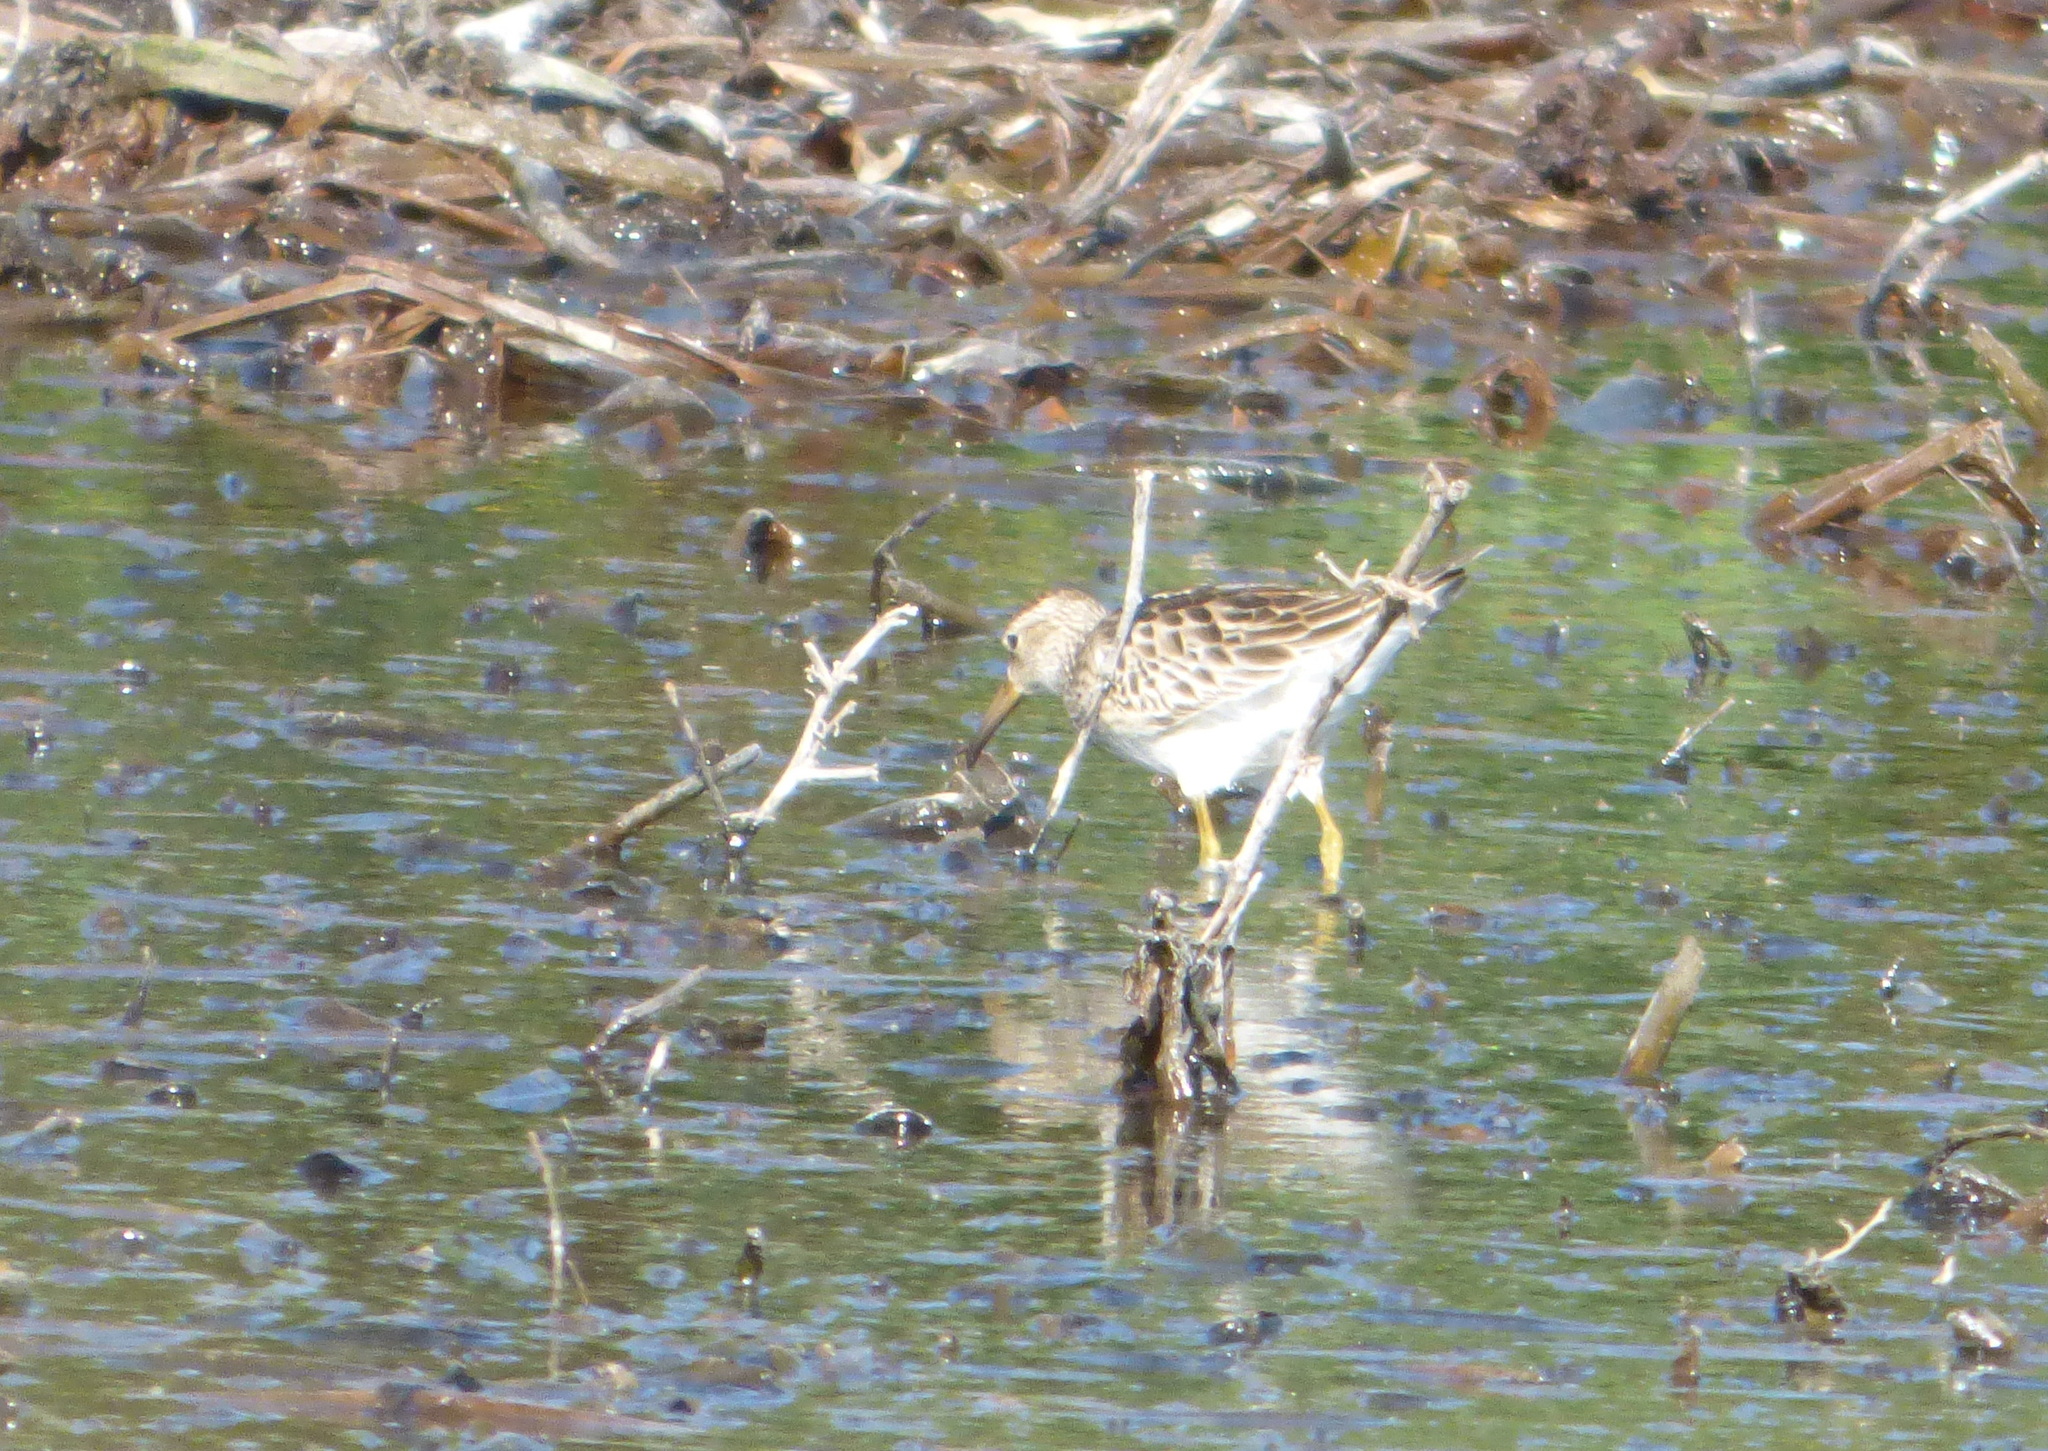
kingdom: Animalia
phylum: Chordata
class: Aves
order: Charadriiformes
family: Scolopacidae
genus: Calidris
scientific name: Calidris melanotos
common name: Pectoral sandpiper
